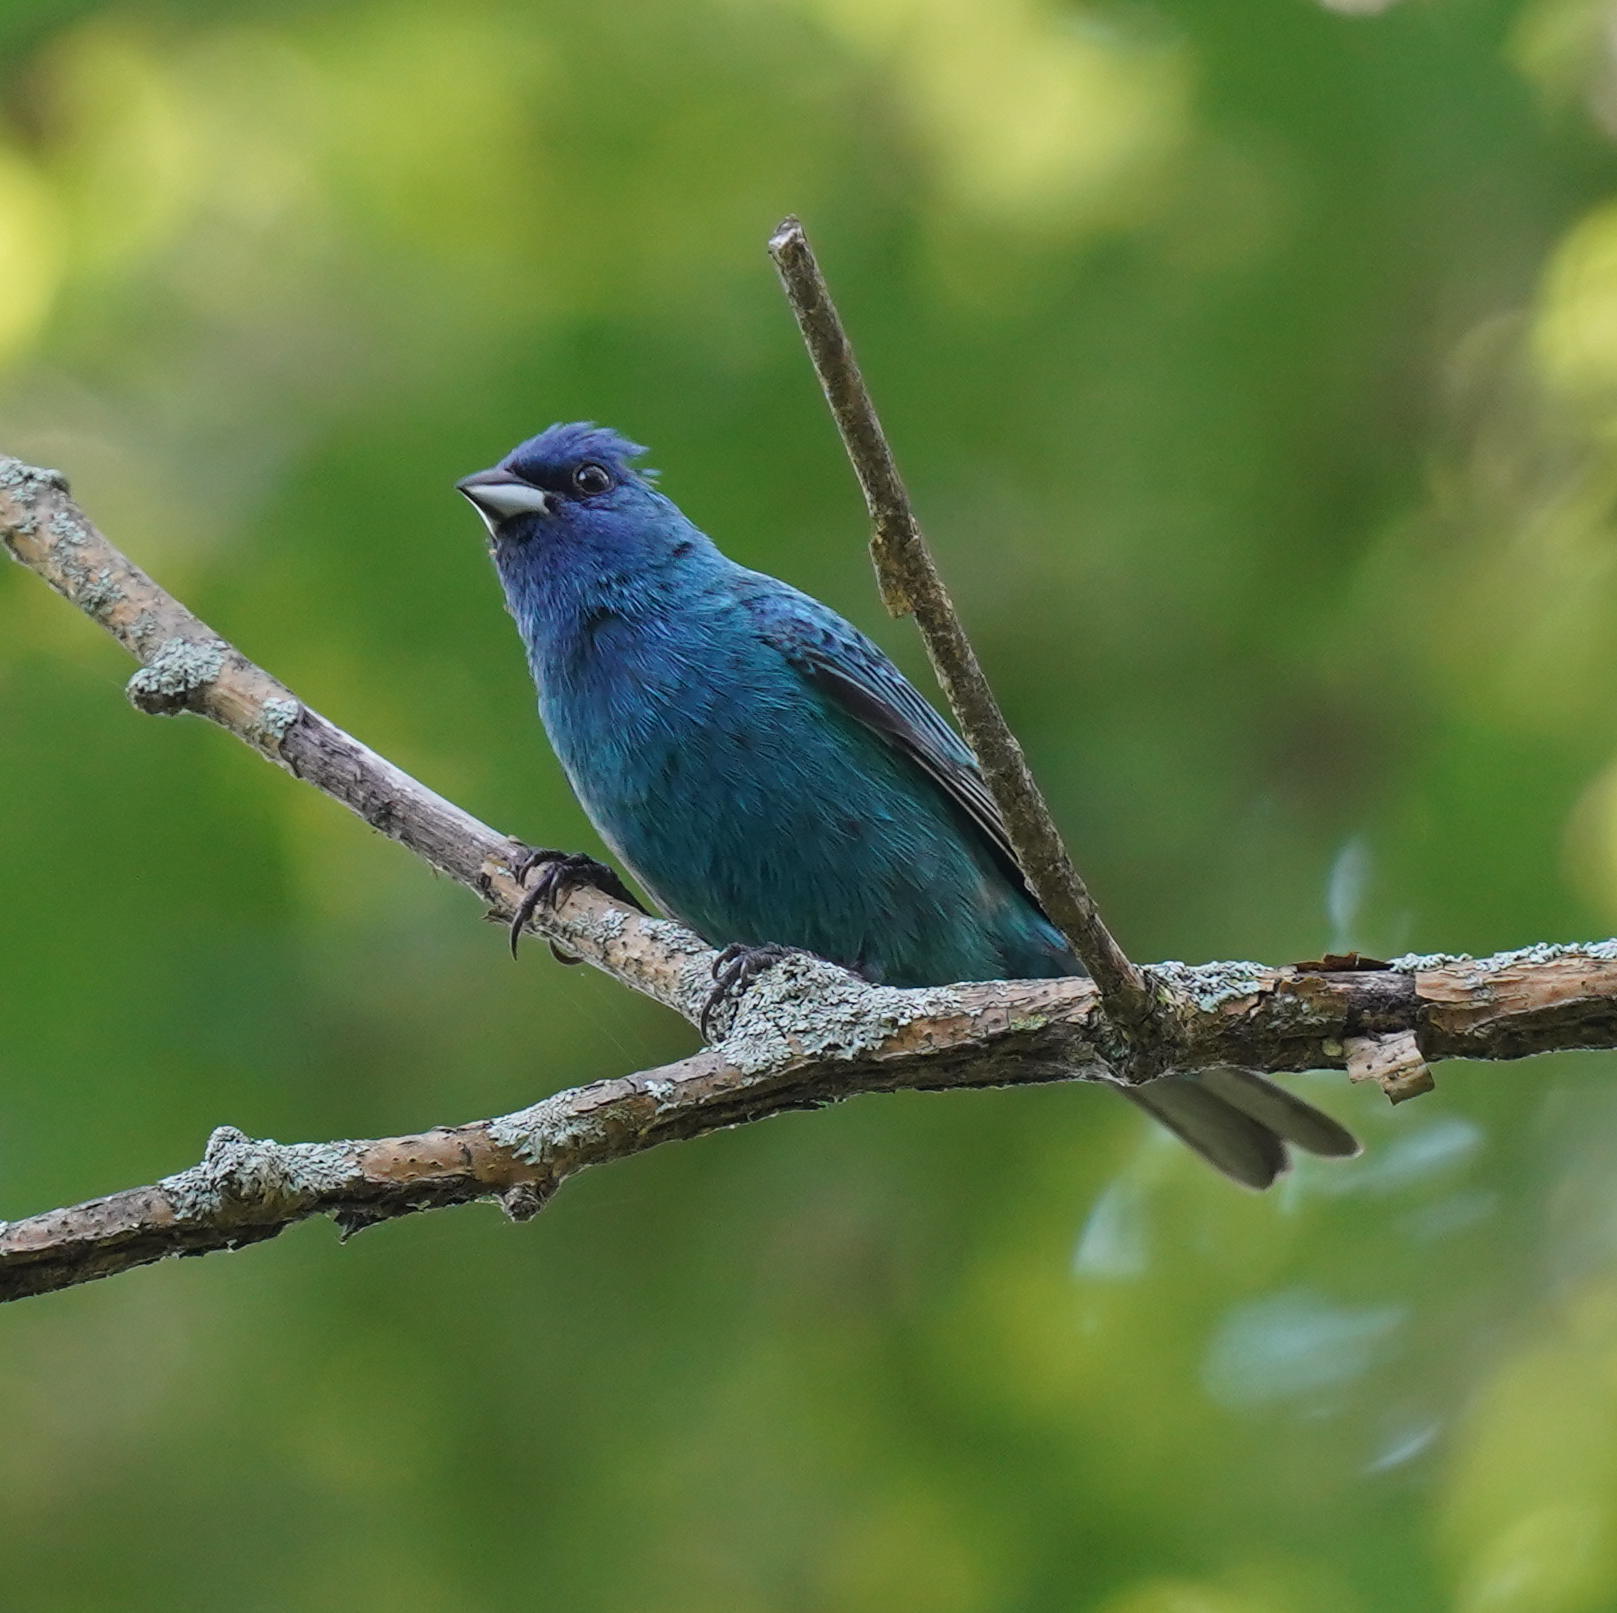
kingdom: Animalia
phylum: Chordata
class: Aves
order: Passeriformes
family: Cardinalidae
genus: Passerina
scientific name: Passerina cyanea
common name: Indigo bunting
